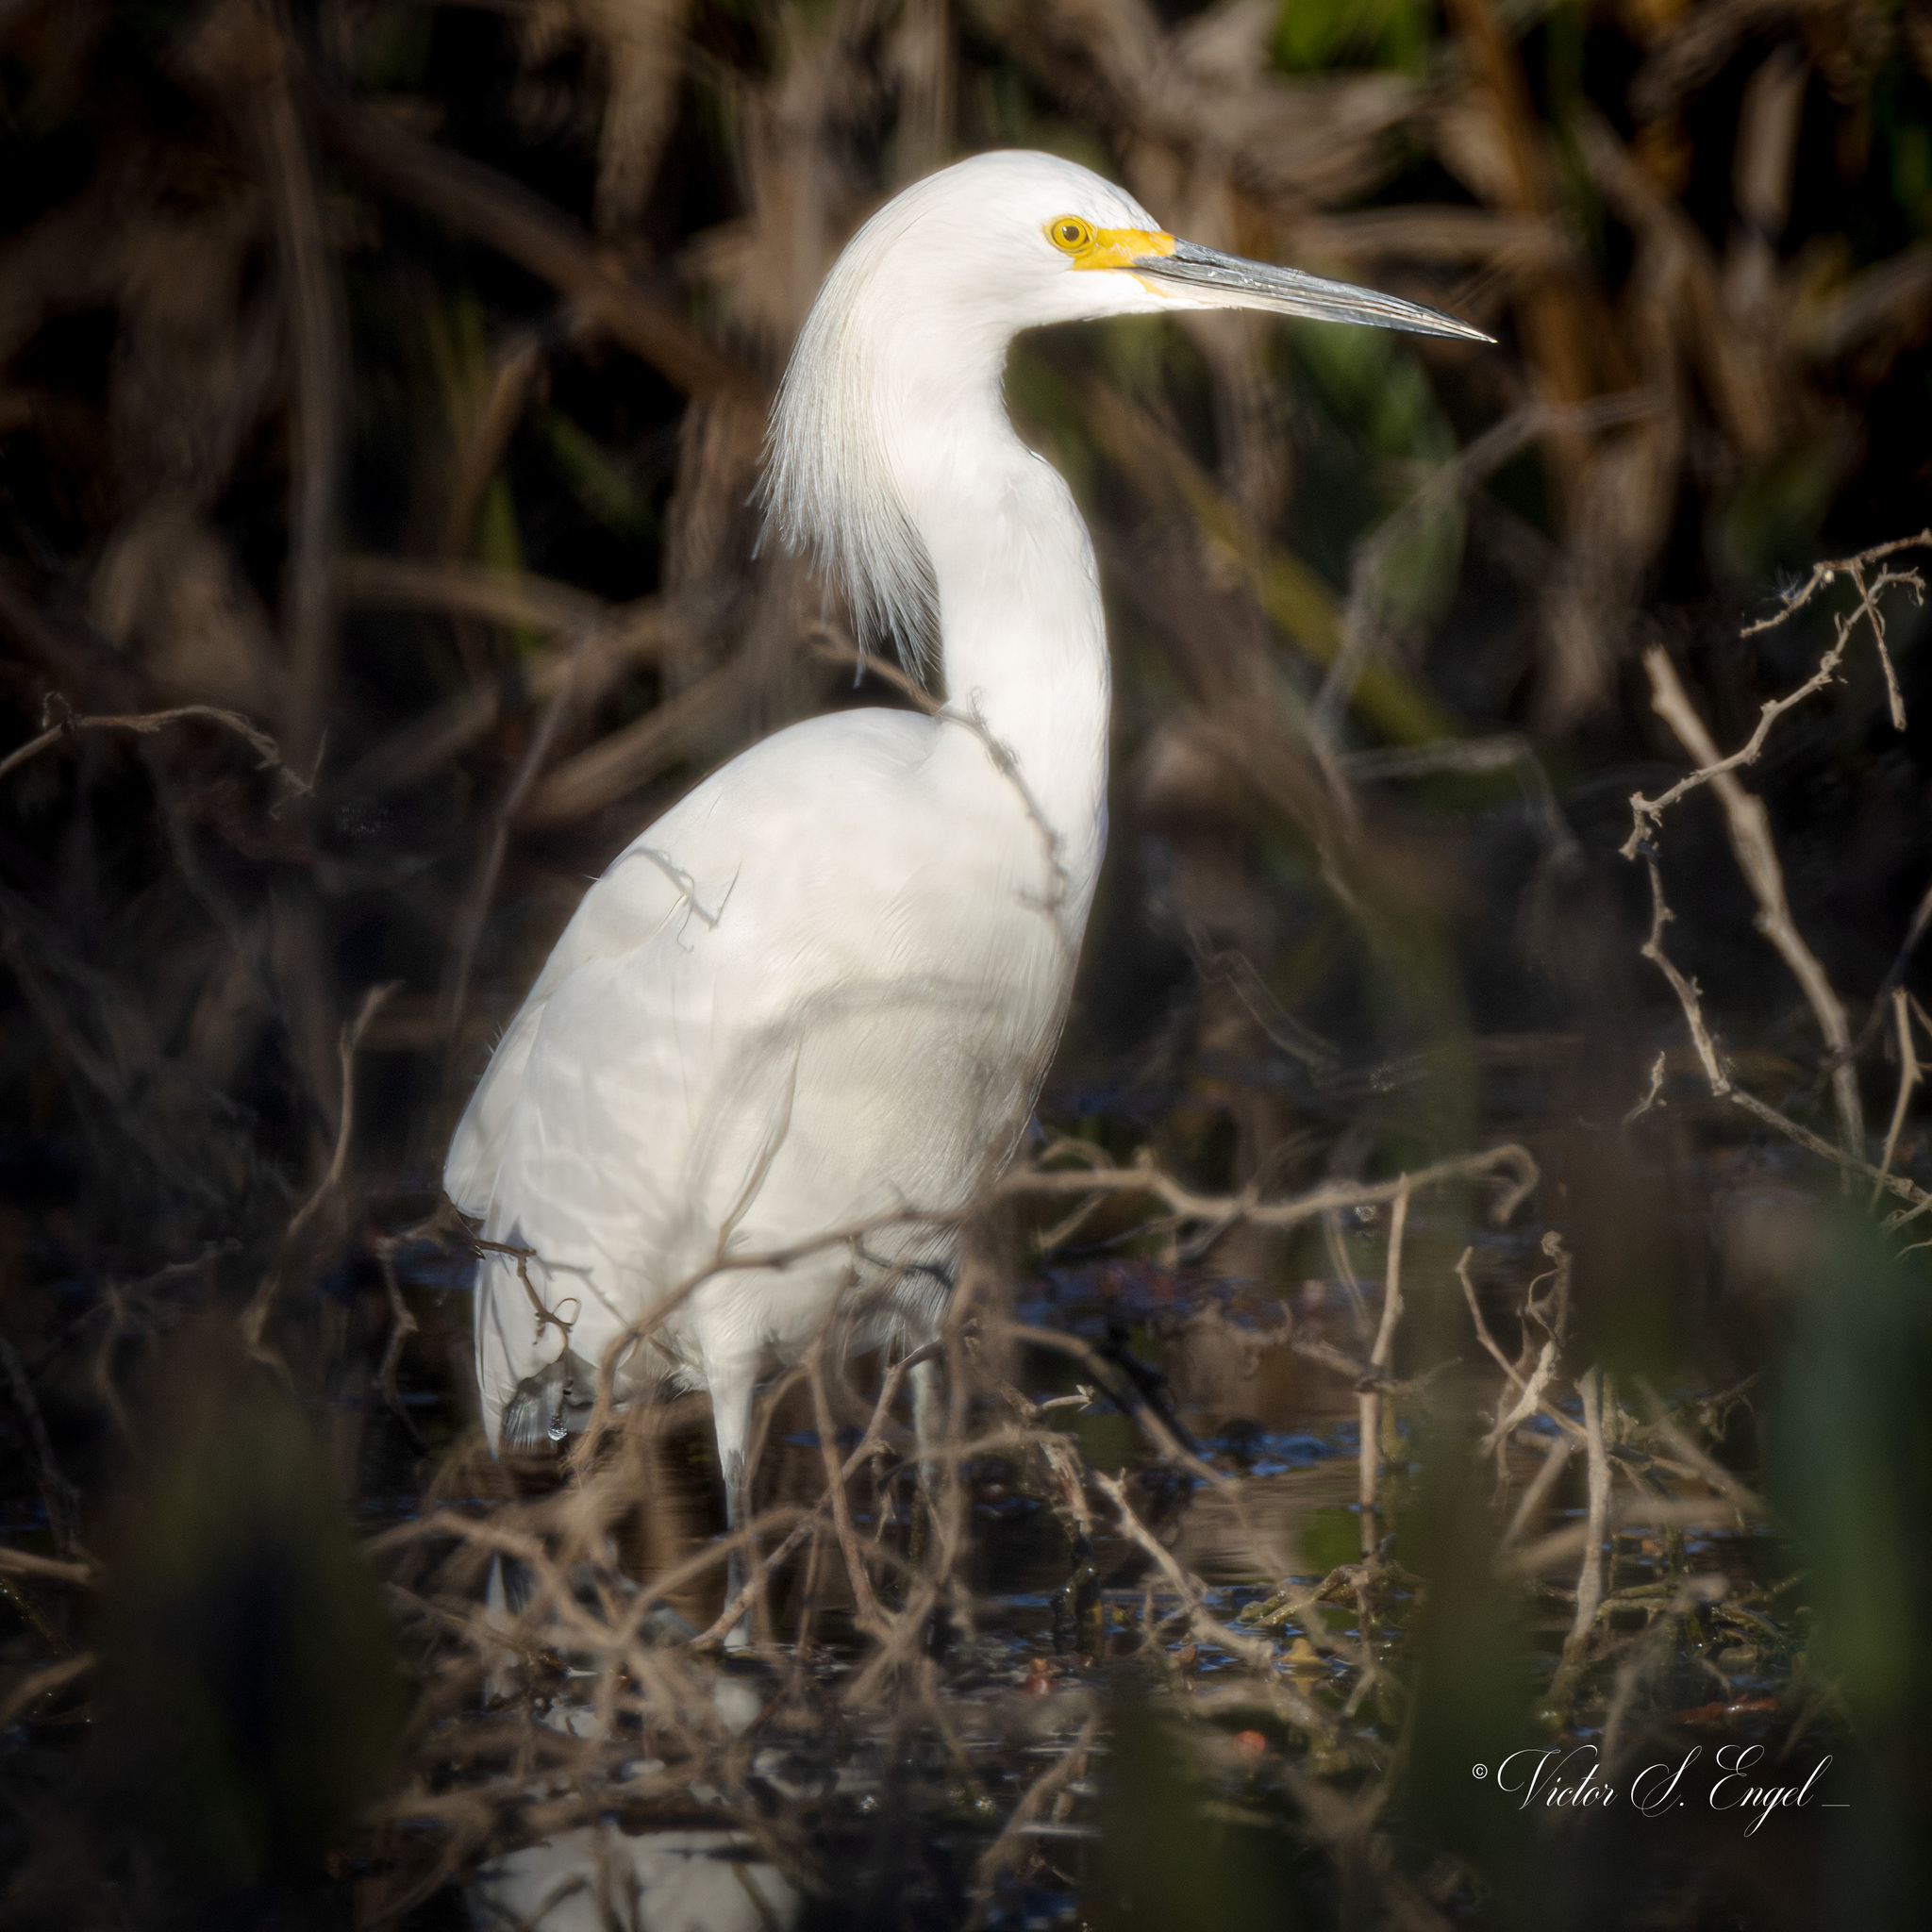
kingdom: Animalia
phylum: Chordata
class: Aves
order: Pelecaniformes
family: Ardeidae
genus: Egretta
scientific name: Egretta thula
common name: Snowy egret
